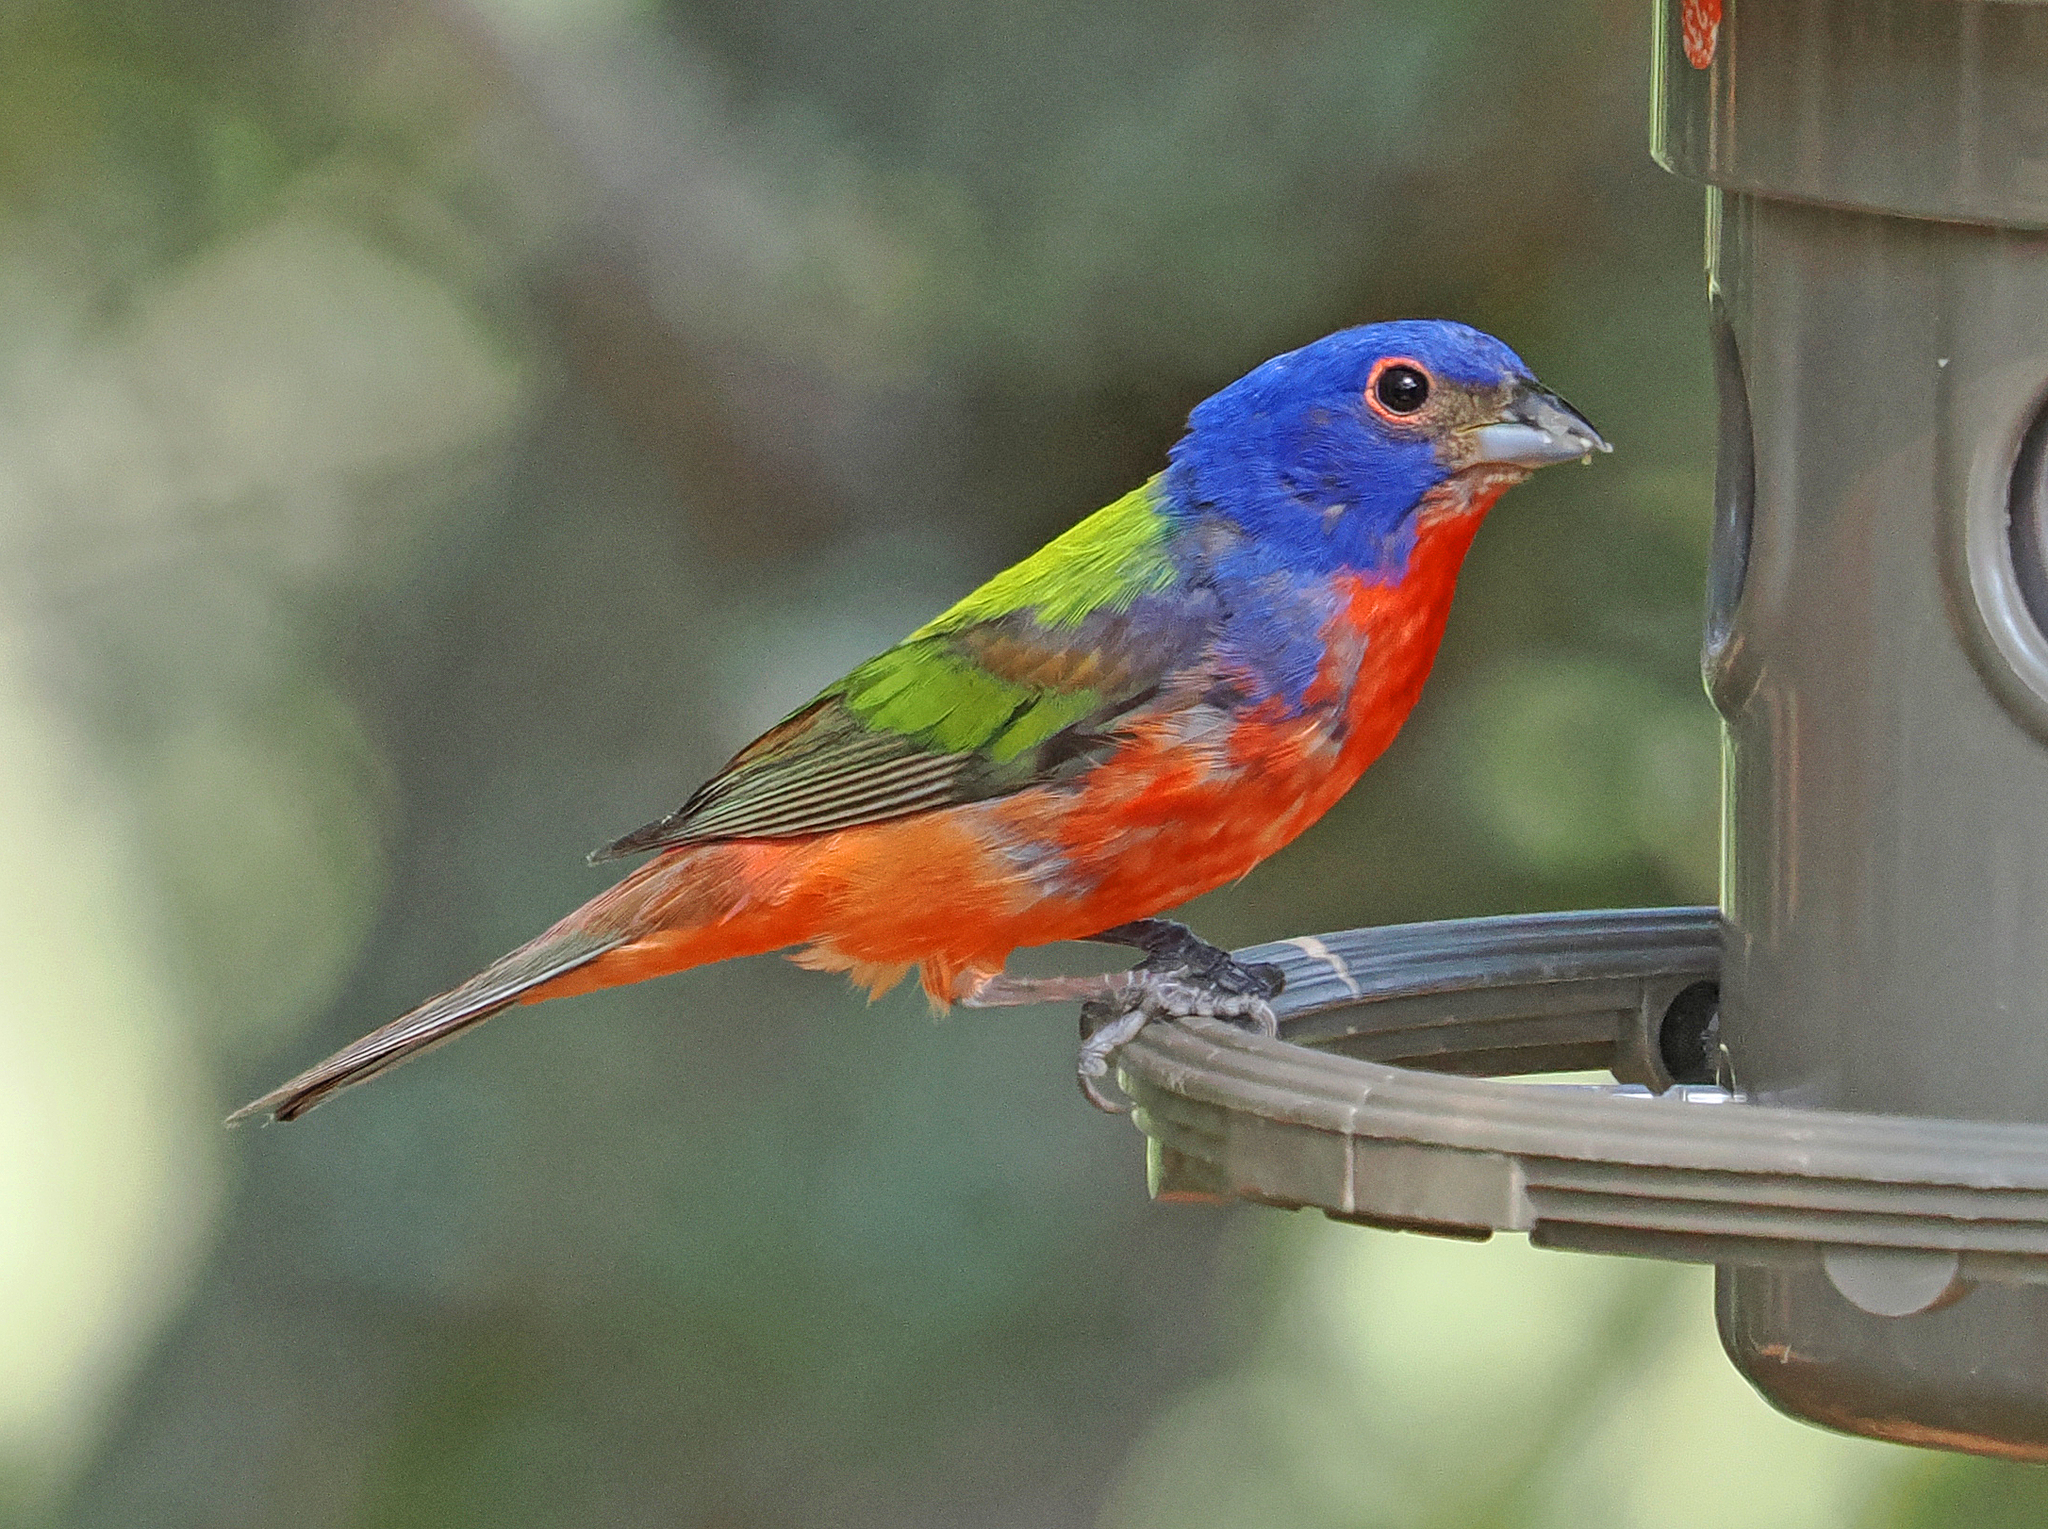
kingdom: Animalia
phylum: Chordata
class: Aves
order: Passeriformes
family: Cardinalidae
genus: Passerina
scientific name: Passerina ciris
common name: Painted bunting
